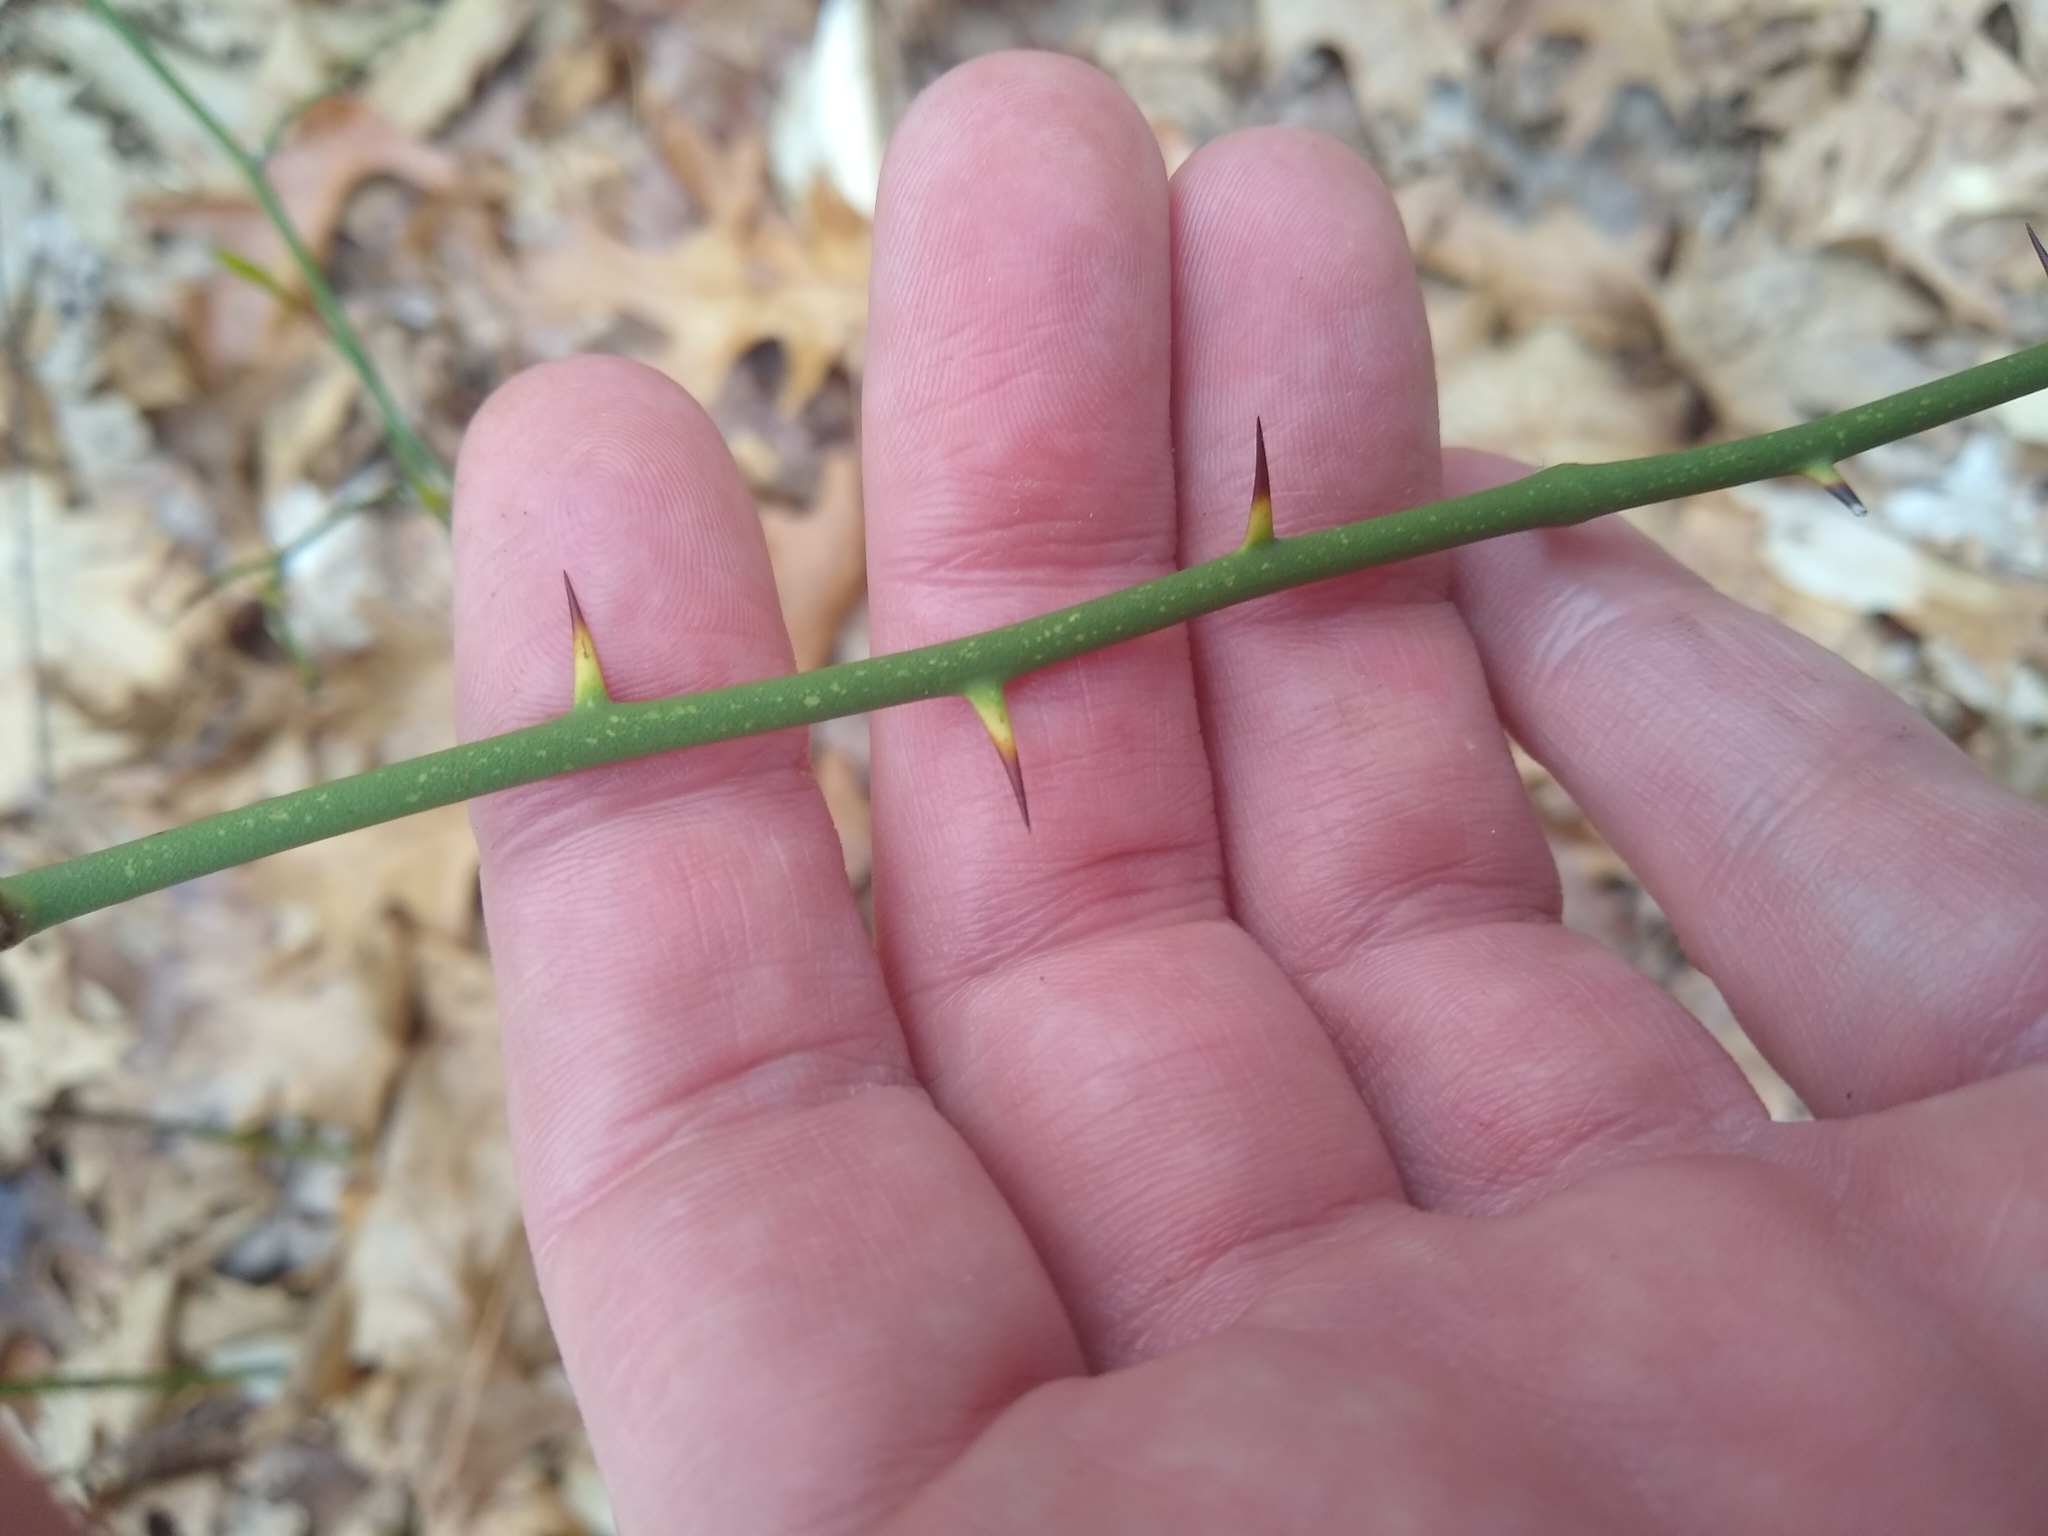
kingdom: Plantae
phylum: Tracheophyta
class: Liliopsida
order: Liliales
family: Smilacaceae
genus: Smilax
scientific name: Smilax rotundifolia
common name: Bullbriar
